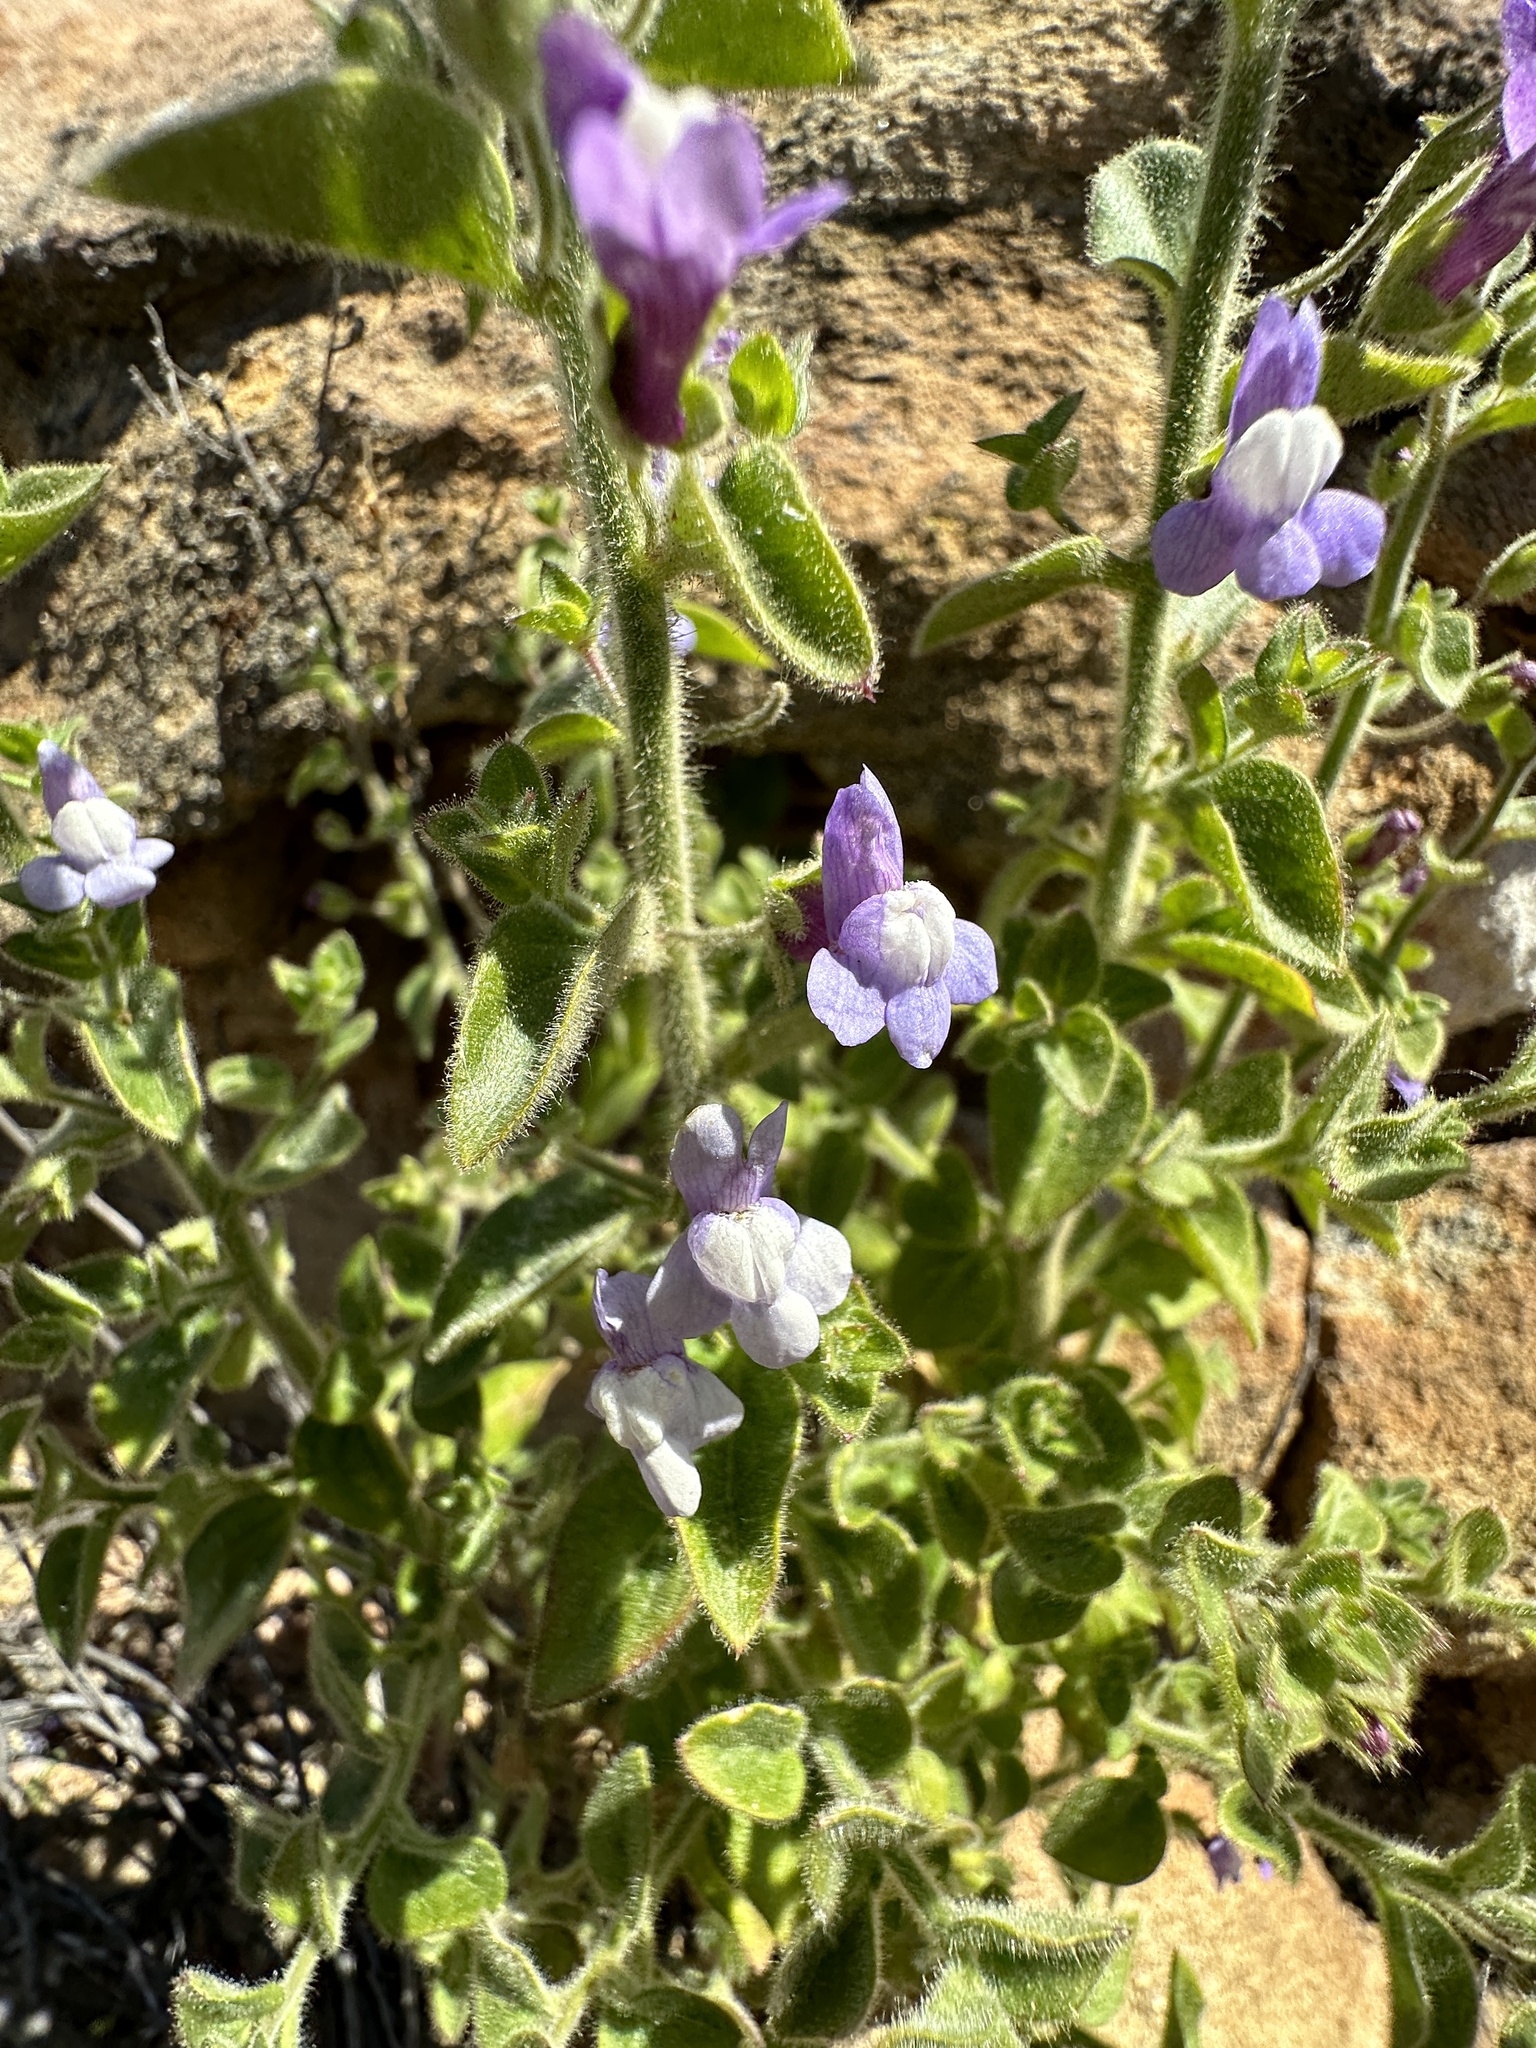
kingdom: Plantae
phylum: Tracheophyta
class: Magnoliopsida
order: Lamiales
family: Plantaginaceae
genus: Sairocarpus
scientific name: Sairocarpus nuttallianus
